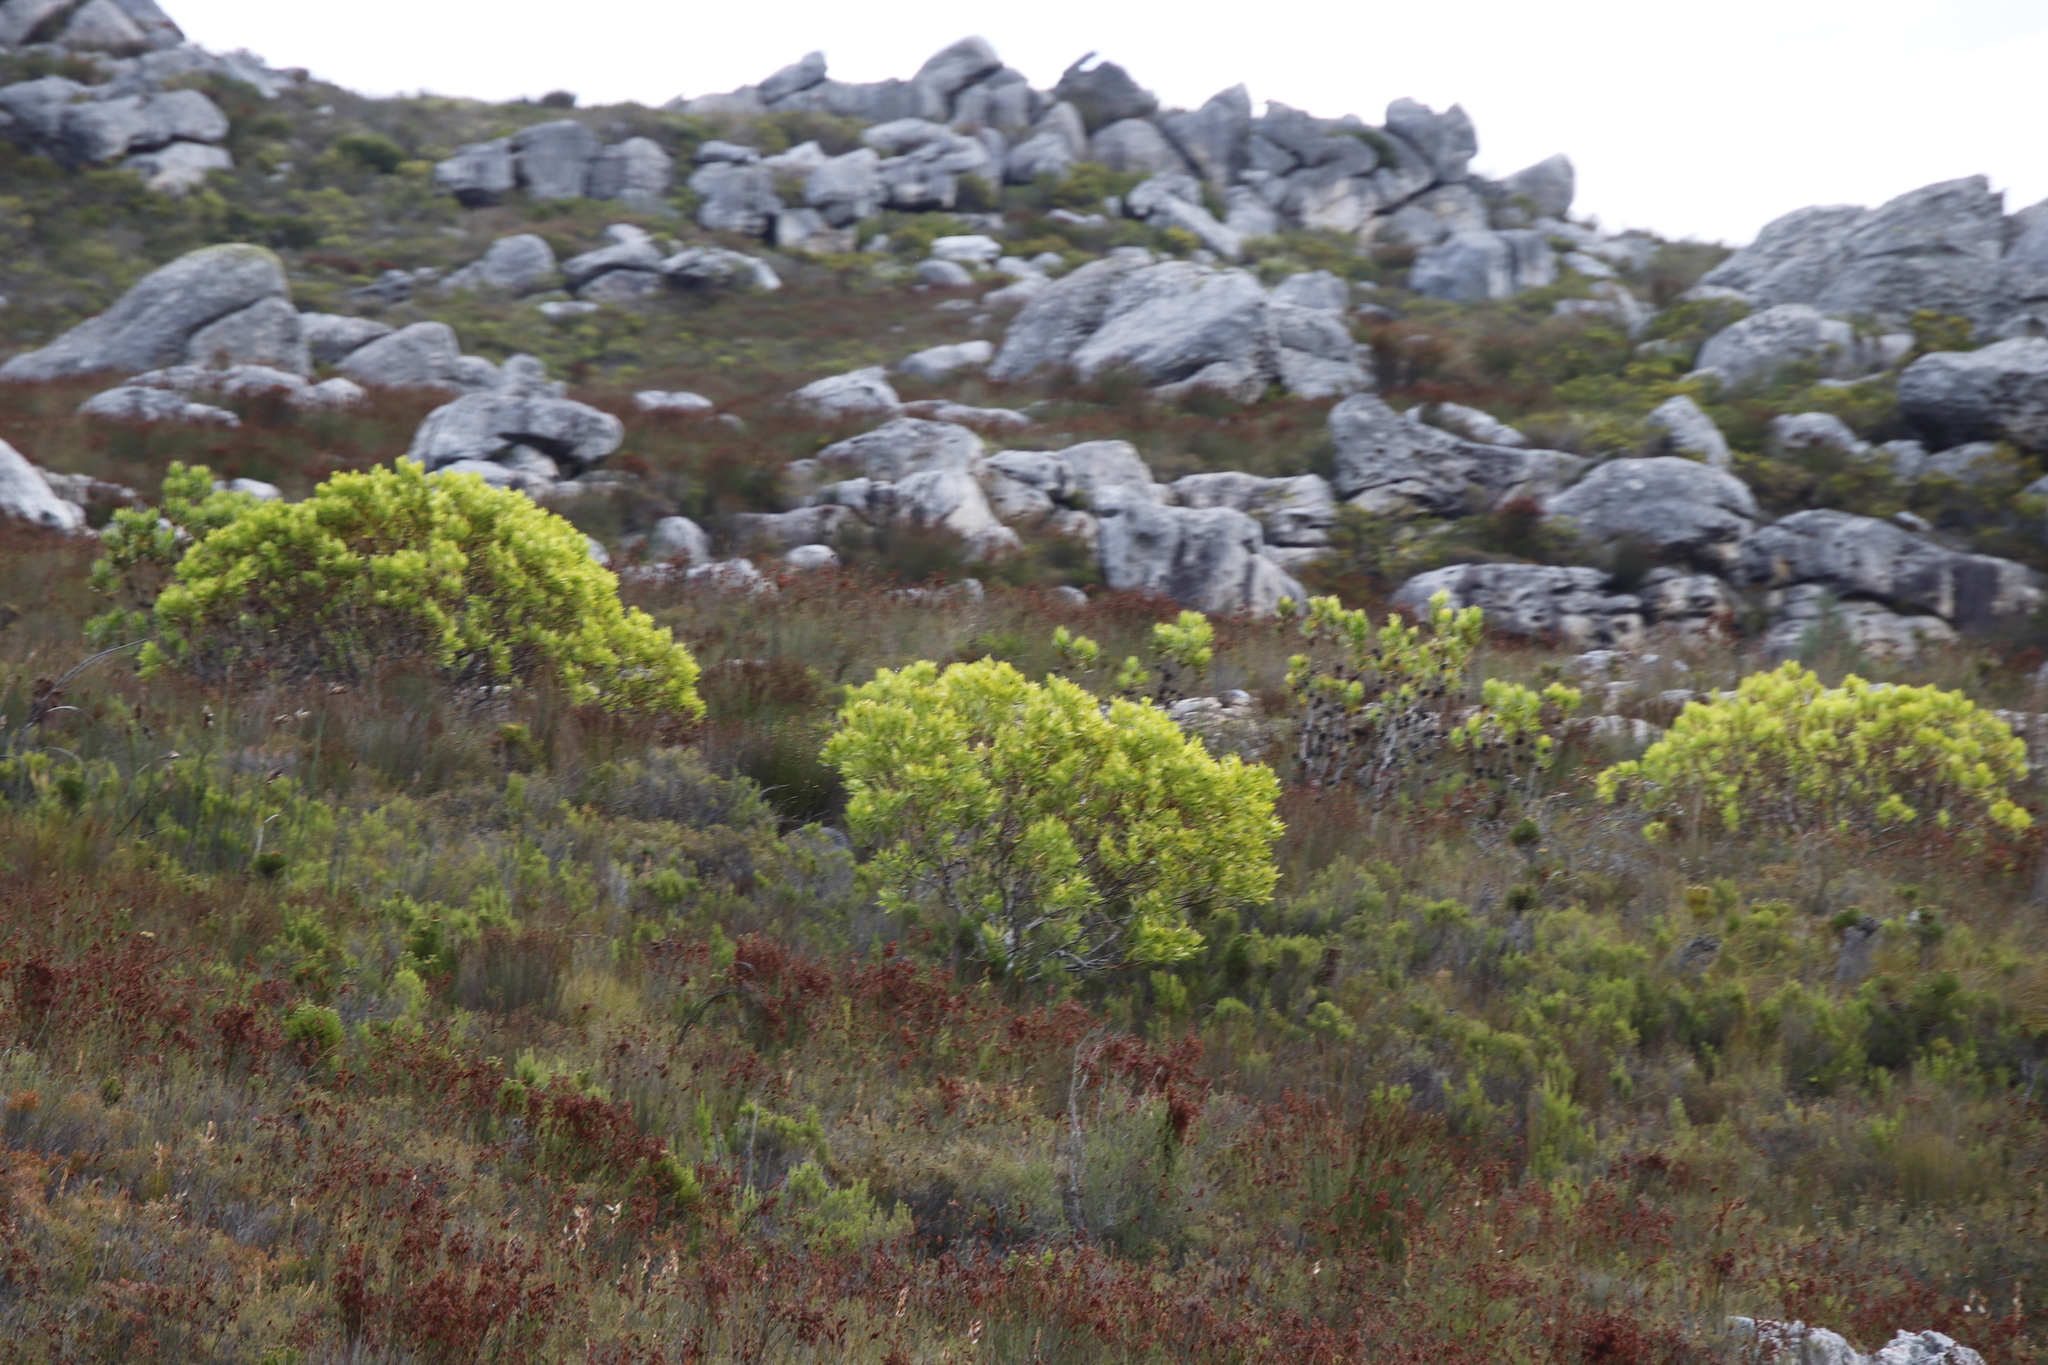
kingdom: Plantae
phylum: Tracheophyta
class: Magnoliopsida
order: Proteales
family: Proteaceae
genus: Leucadendron
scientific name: Leucadendron microcephalum
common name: Oilbract conebush
